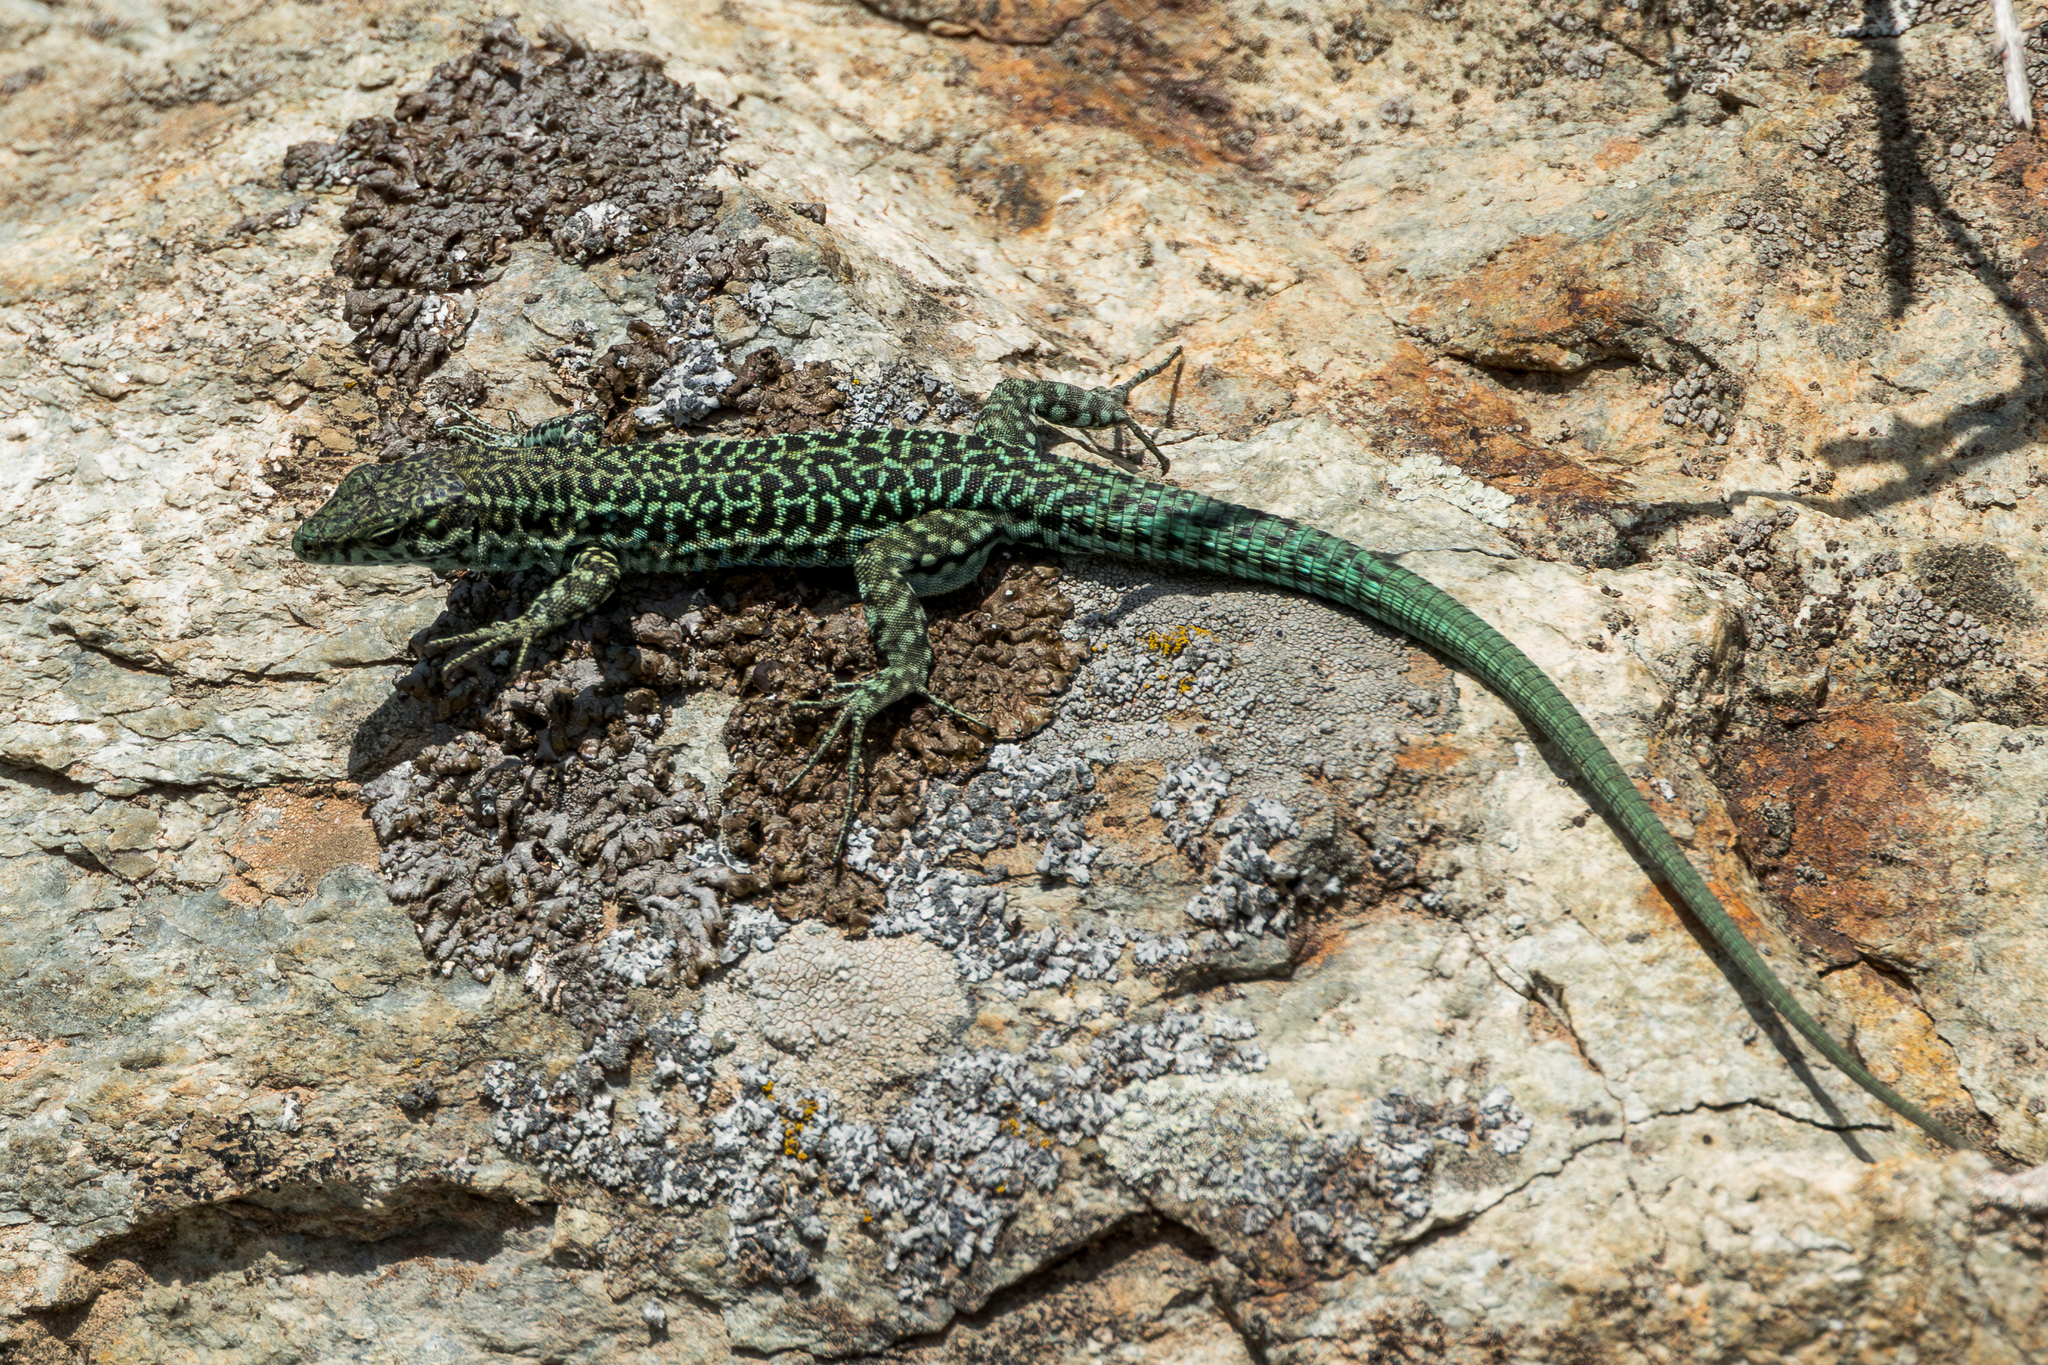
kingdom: Animalia
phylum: Chordata
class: Squamata
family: Lacertidae
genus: Podarcis
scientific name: Podarcis tiliguerta
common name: Tyrrhenian wall lizard
